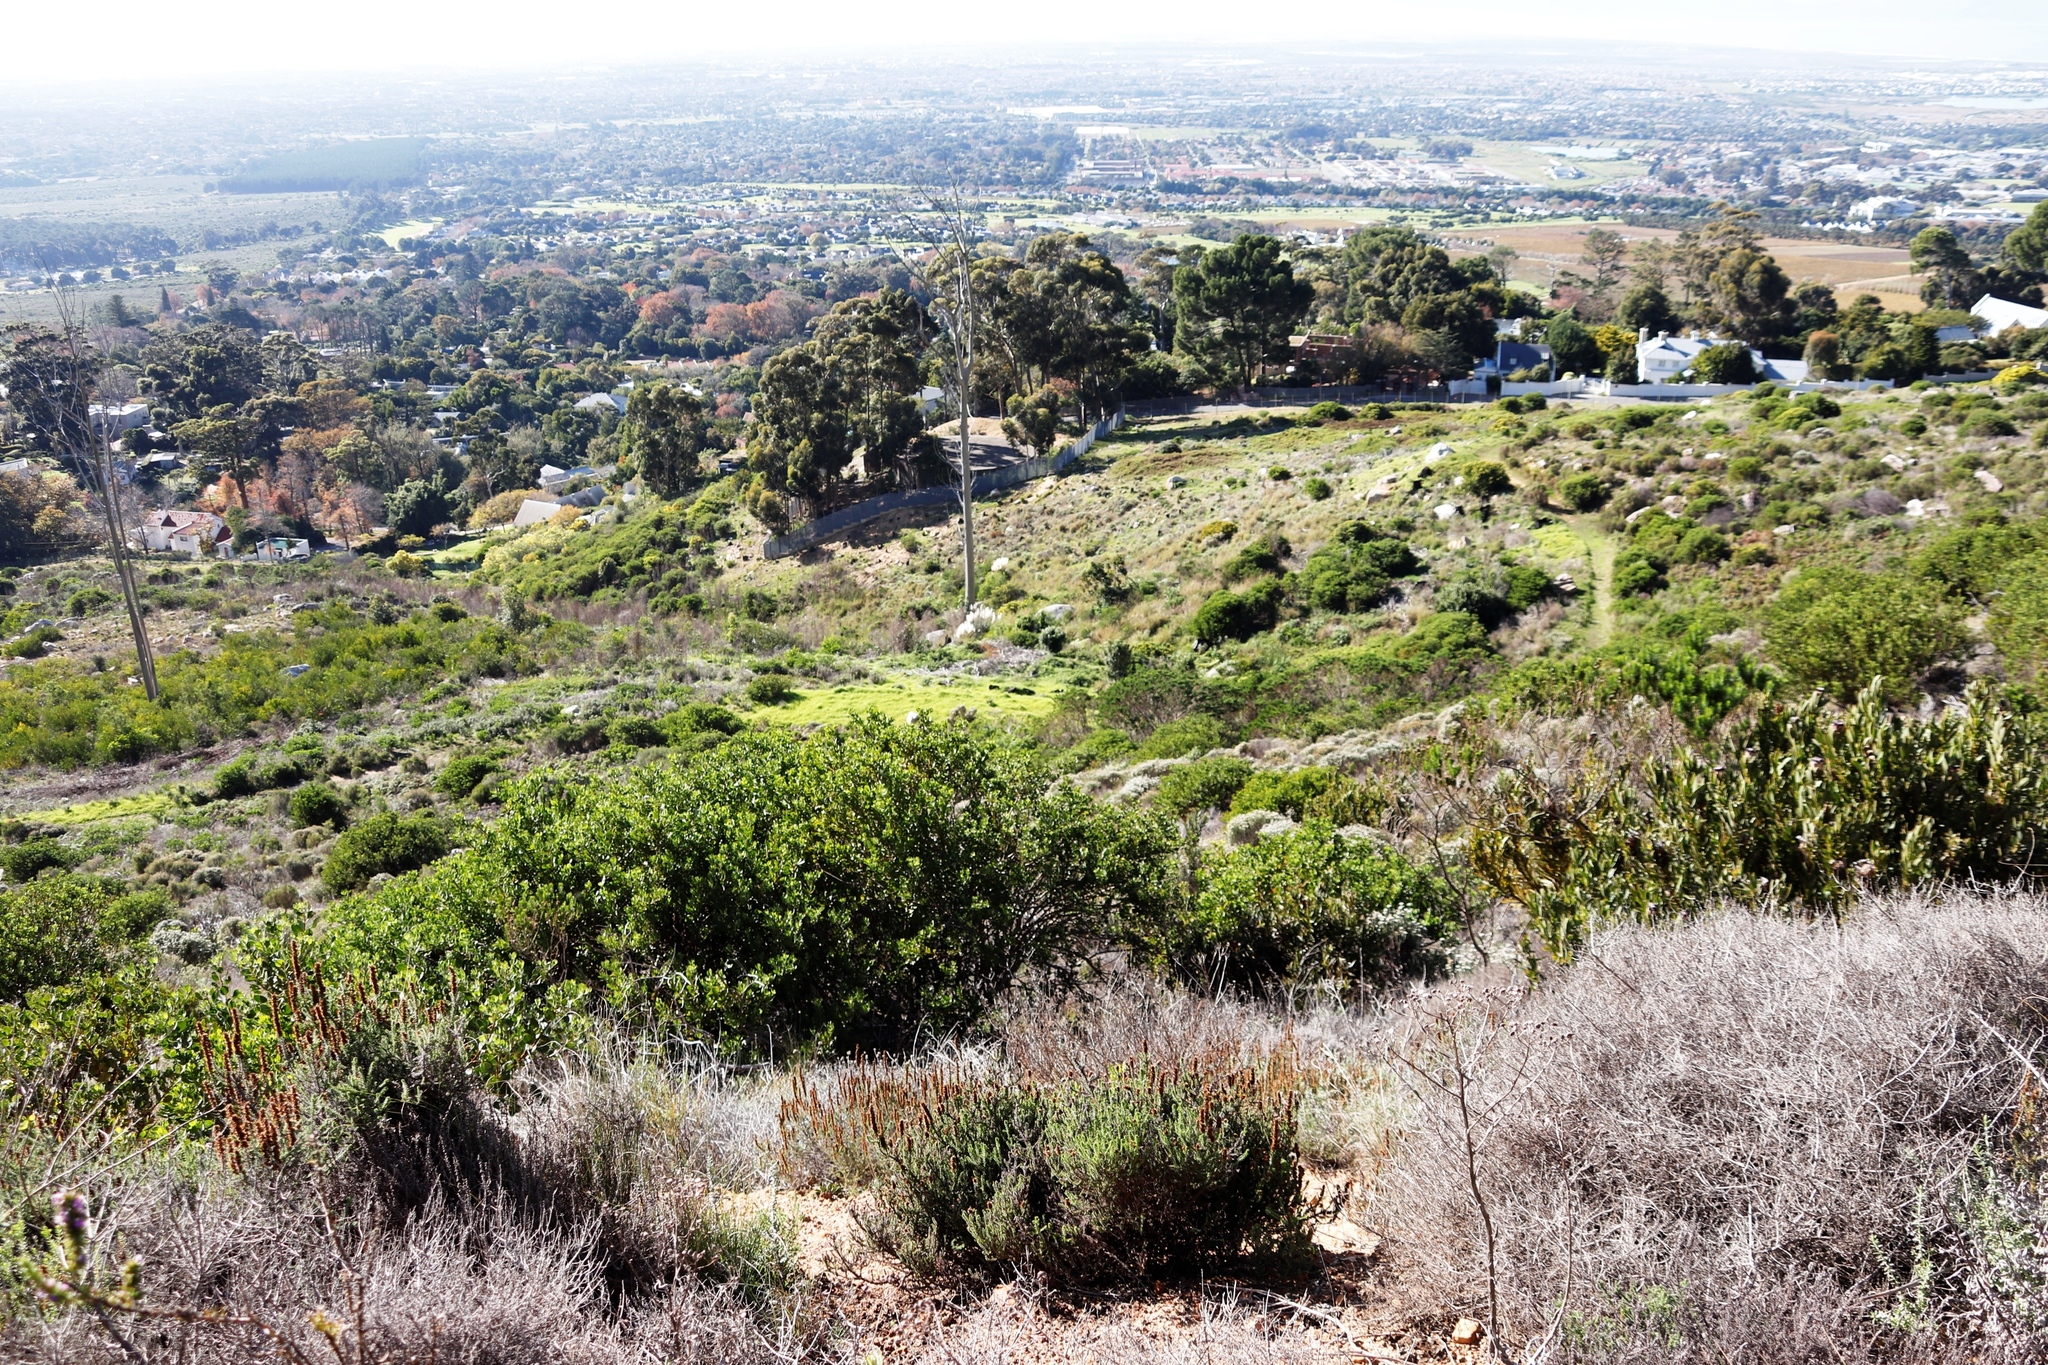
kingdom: Plantae
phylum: Tracheophyta
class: Liliopsida
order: Poales
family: Poaceae
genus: Cortaderia
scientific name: Cortaderia selloana
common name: Uruguayan pampas grass
